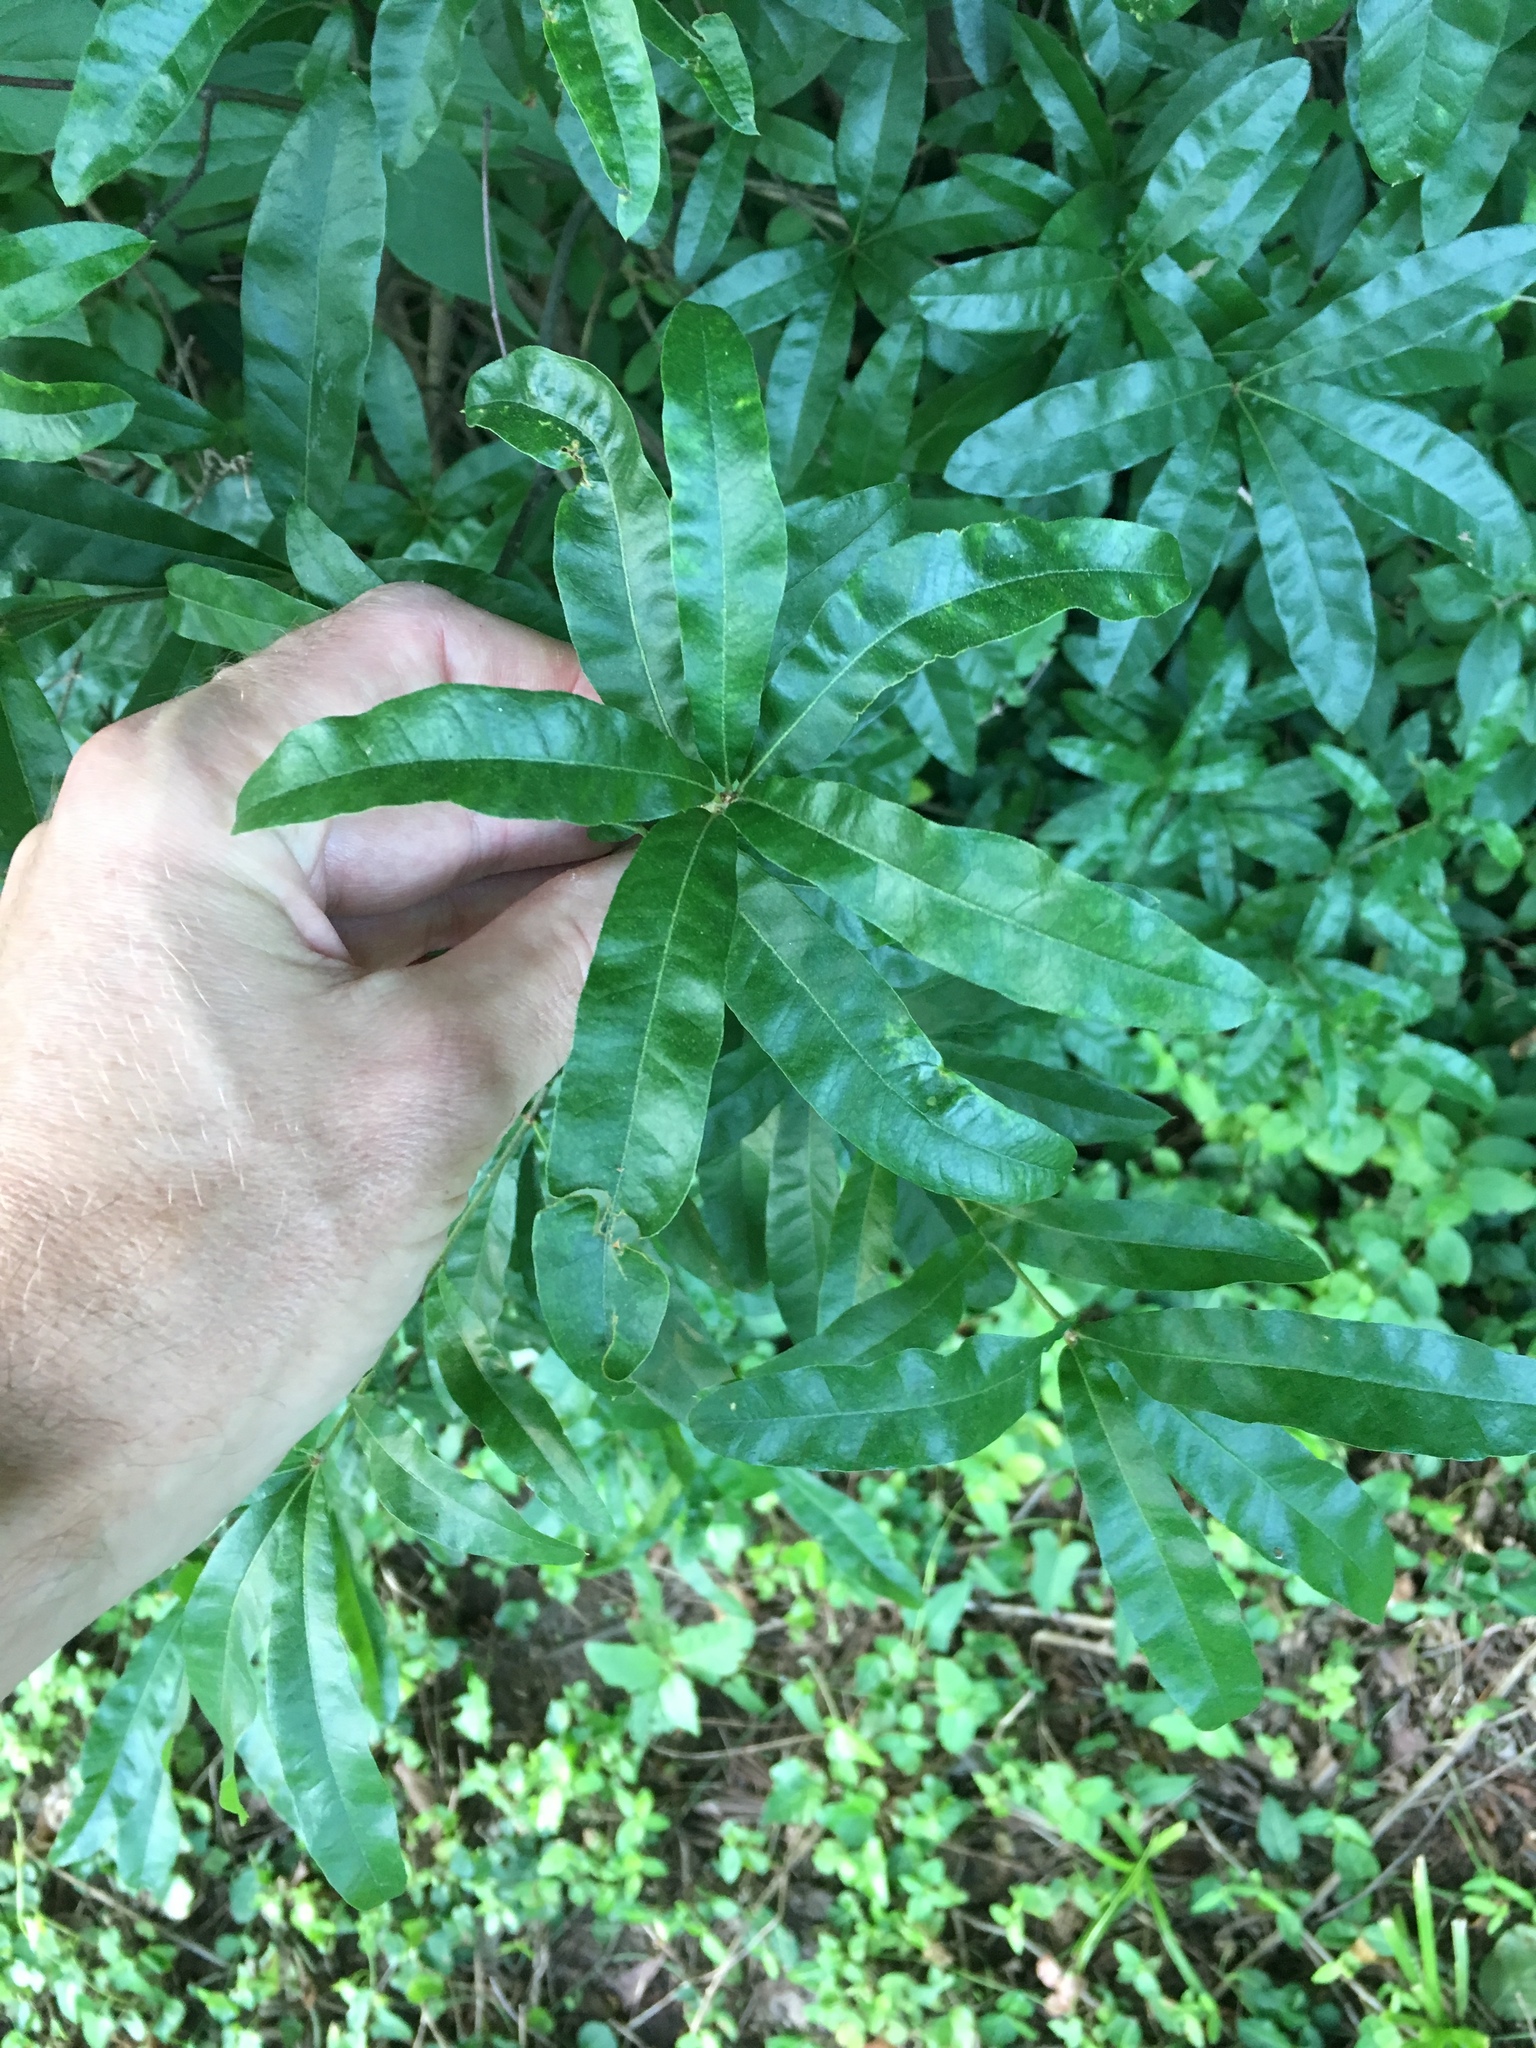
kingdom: Plantae
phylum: Tracheophyta
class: Magnoliopsida
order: Fagales
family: Fagaceae
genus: Quercus
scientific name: Quercus phellos
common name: Willow oak
